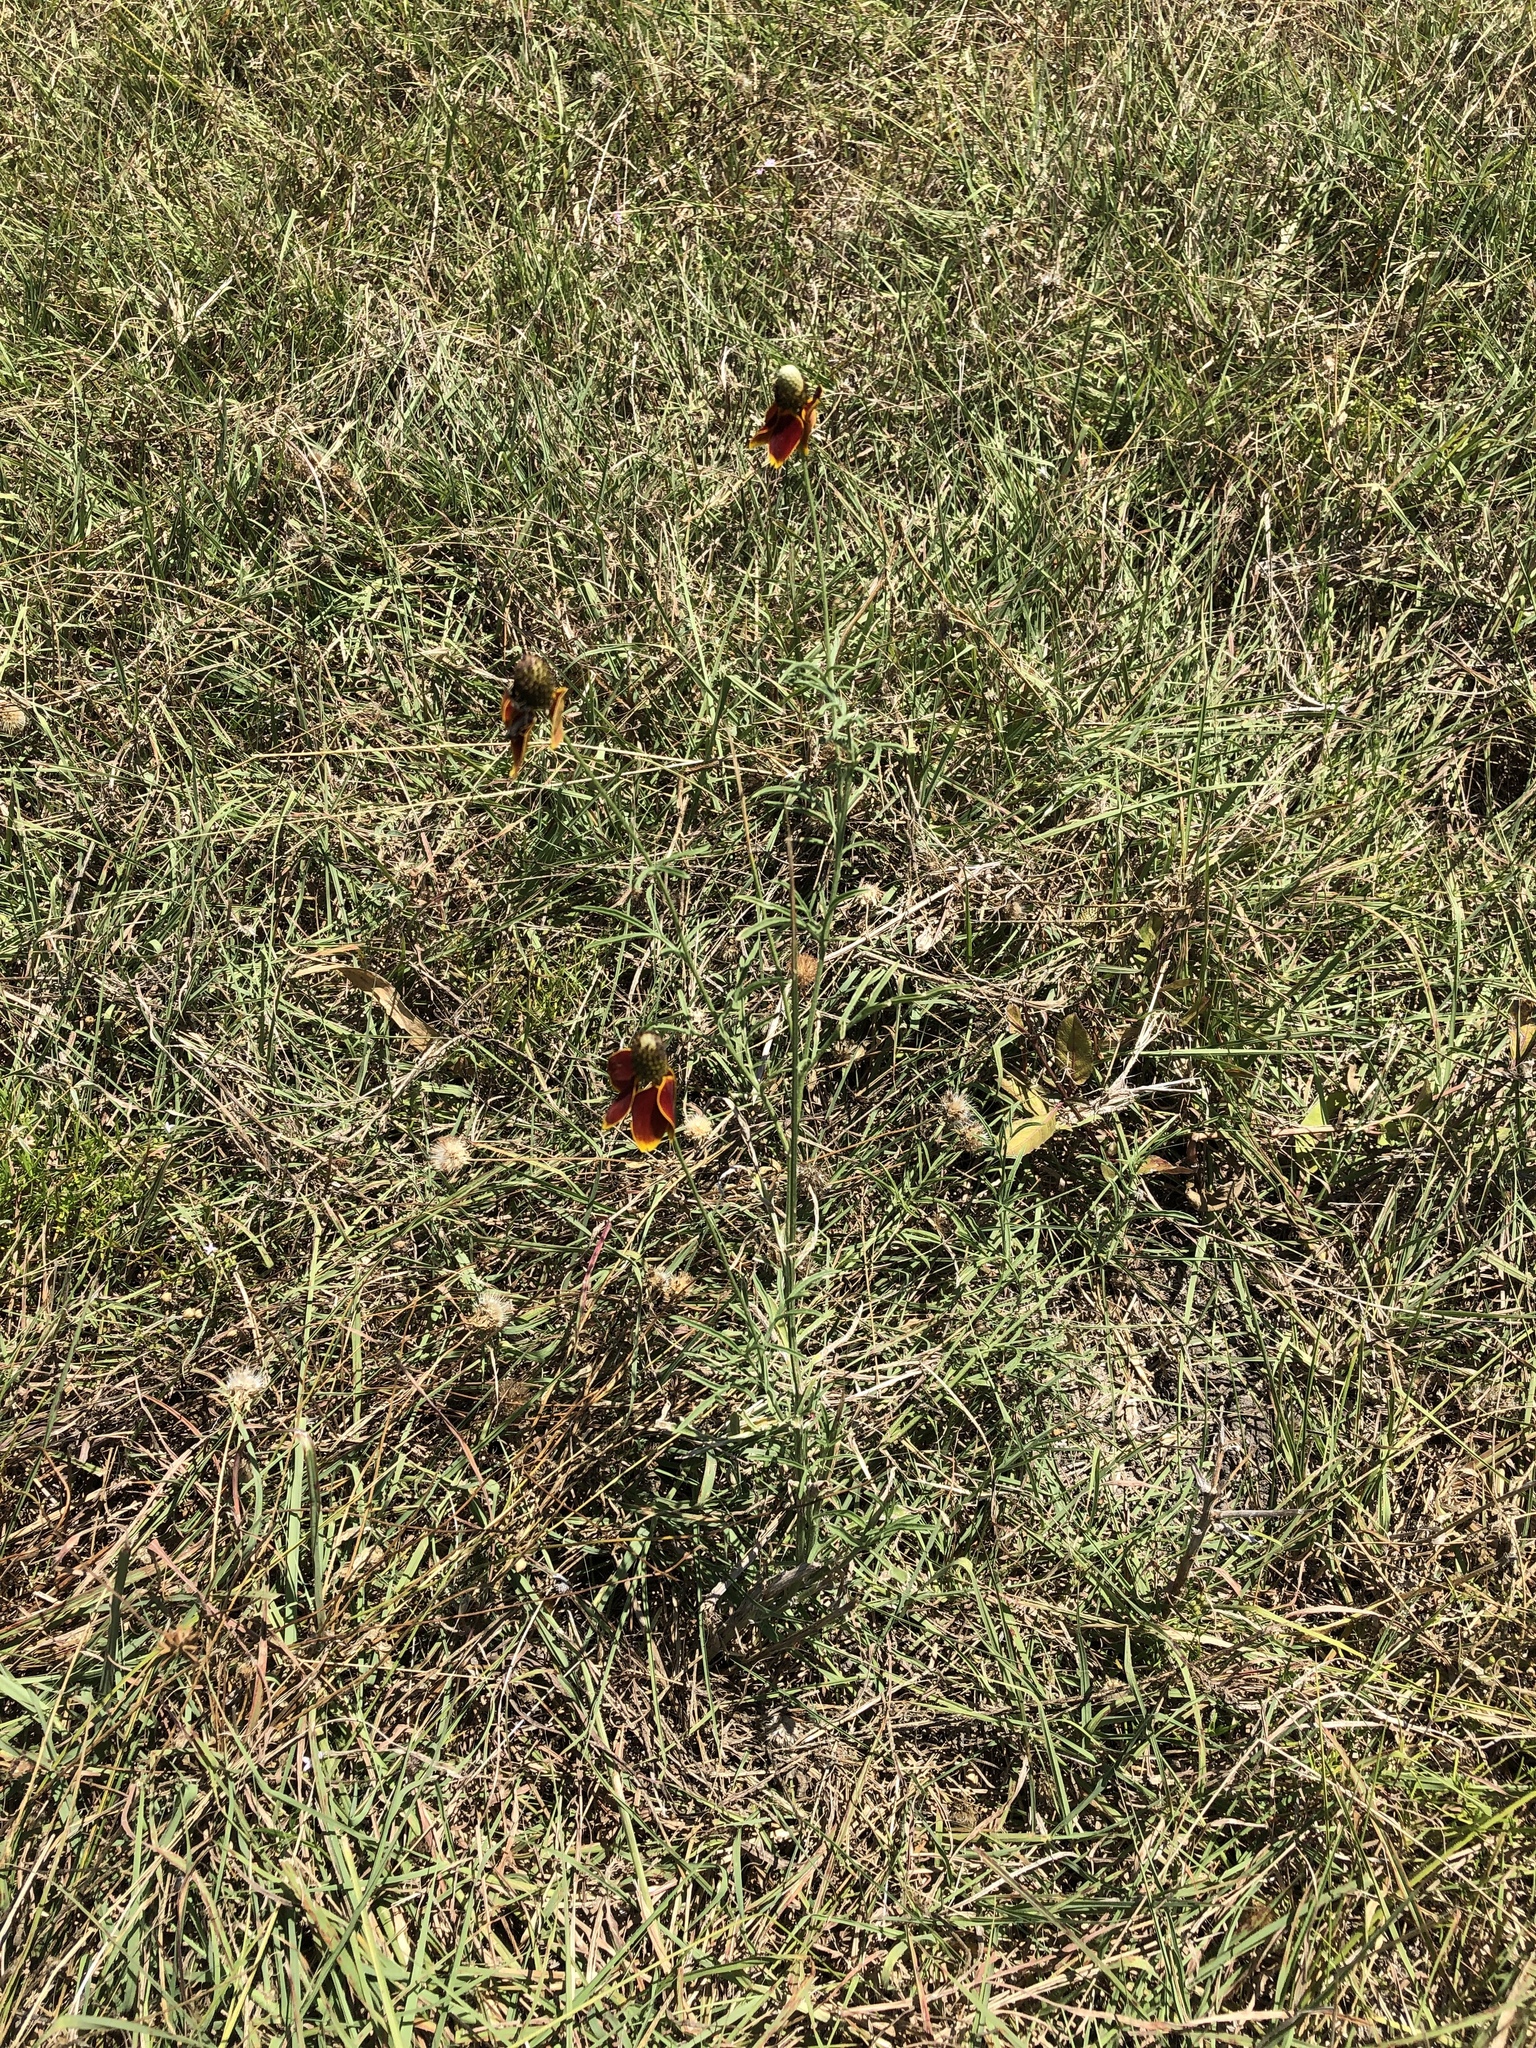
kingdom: Plantae
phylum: Tracheophyta
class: Magnoliopsida
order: Asterales
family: Asteraceae
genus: Ratibida
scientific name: Ratibida columnifera
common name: Prairie coneflower
